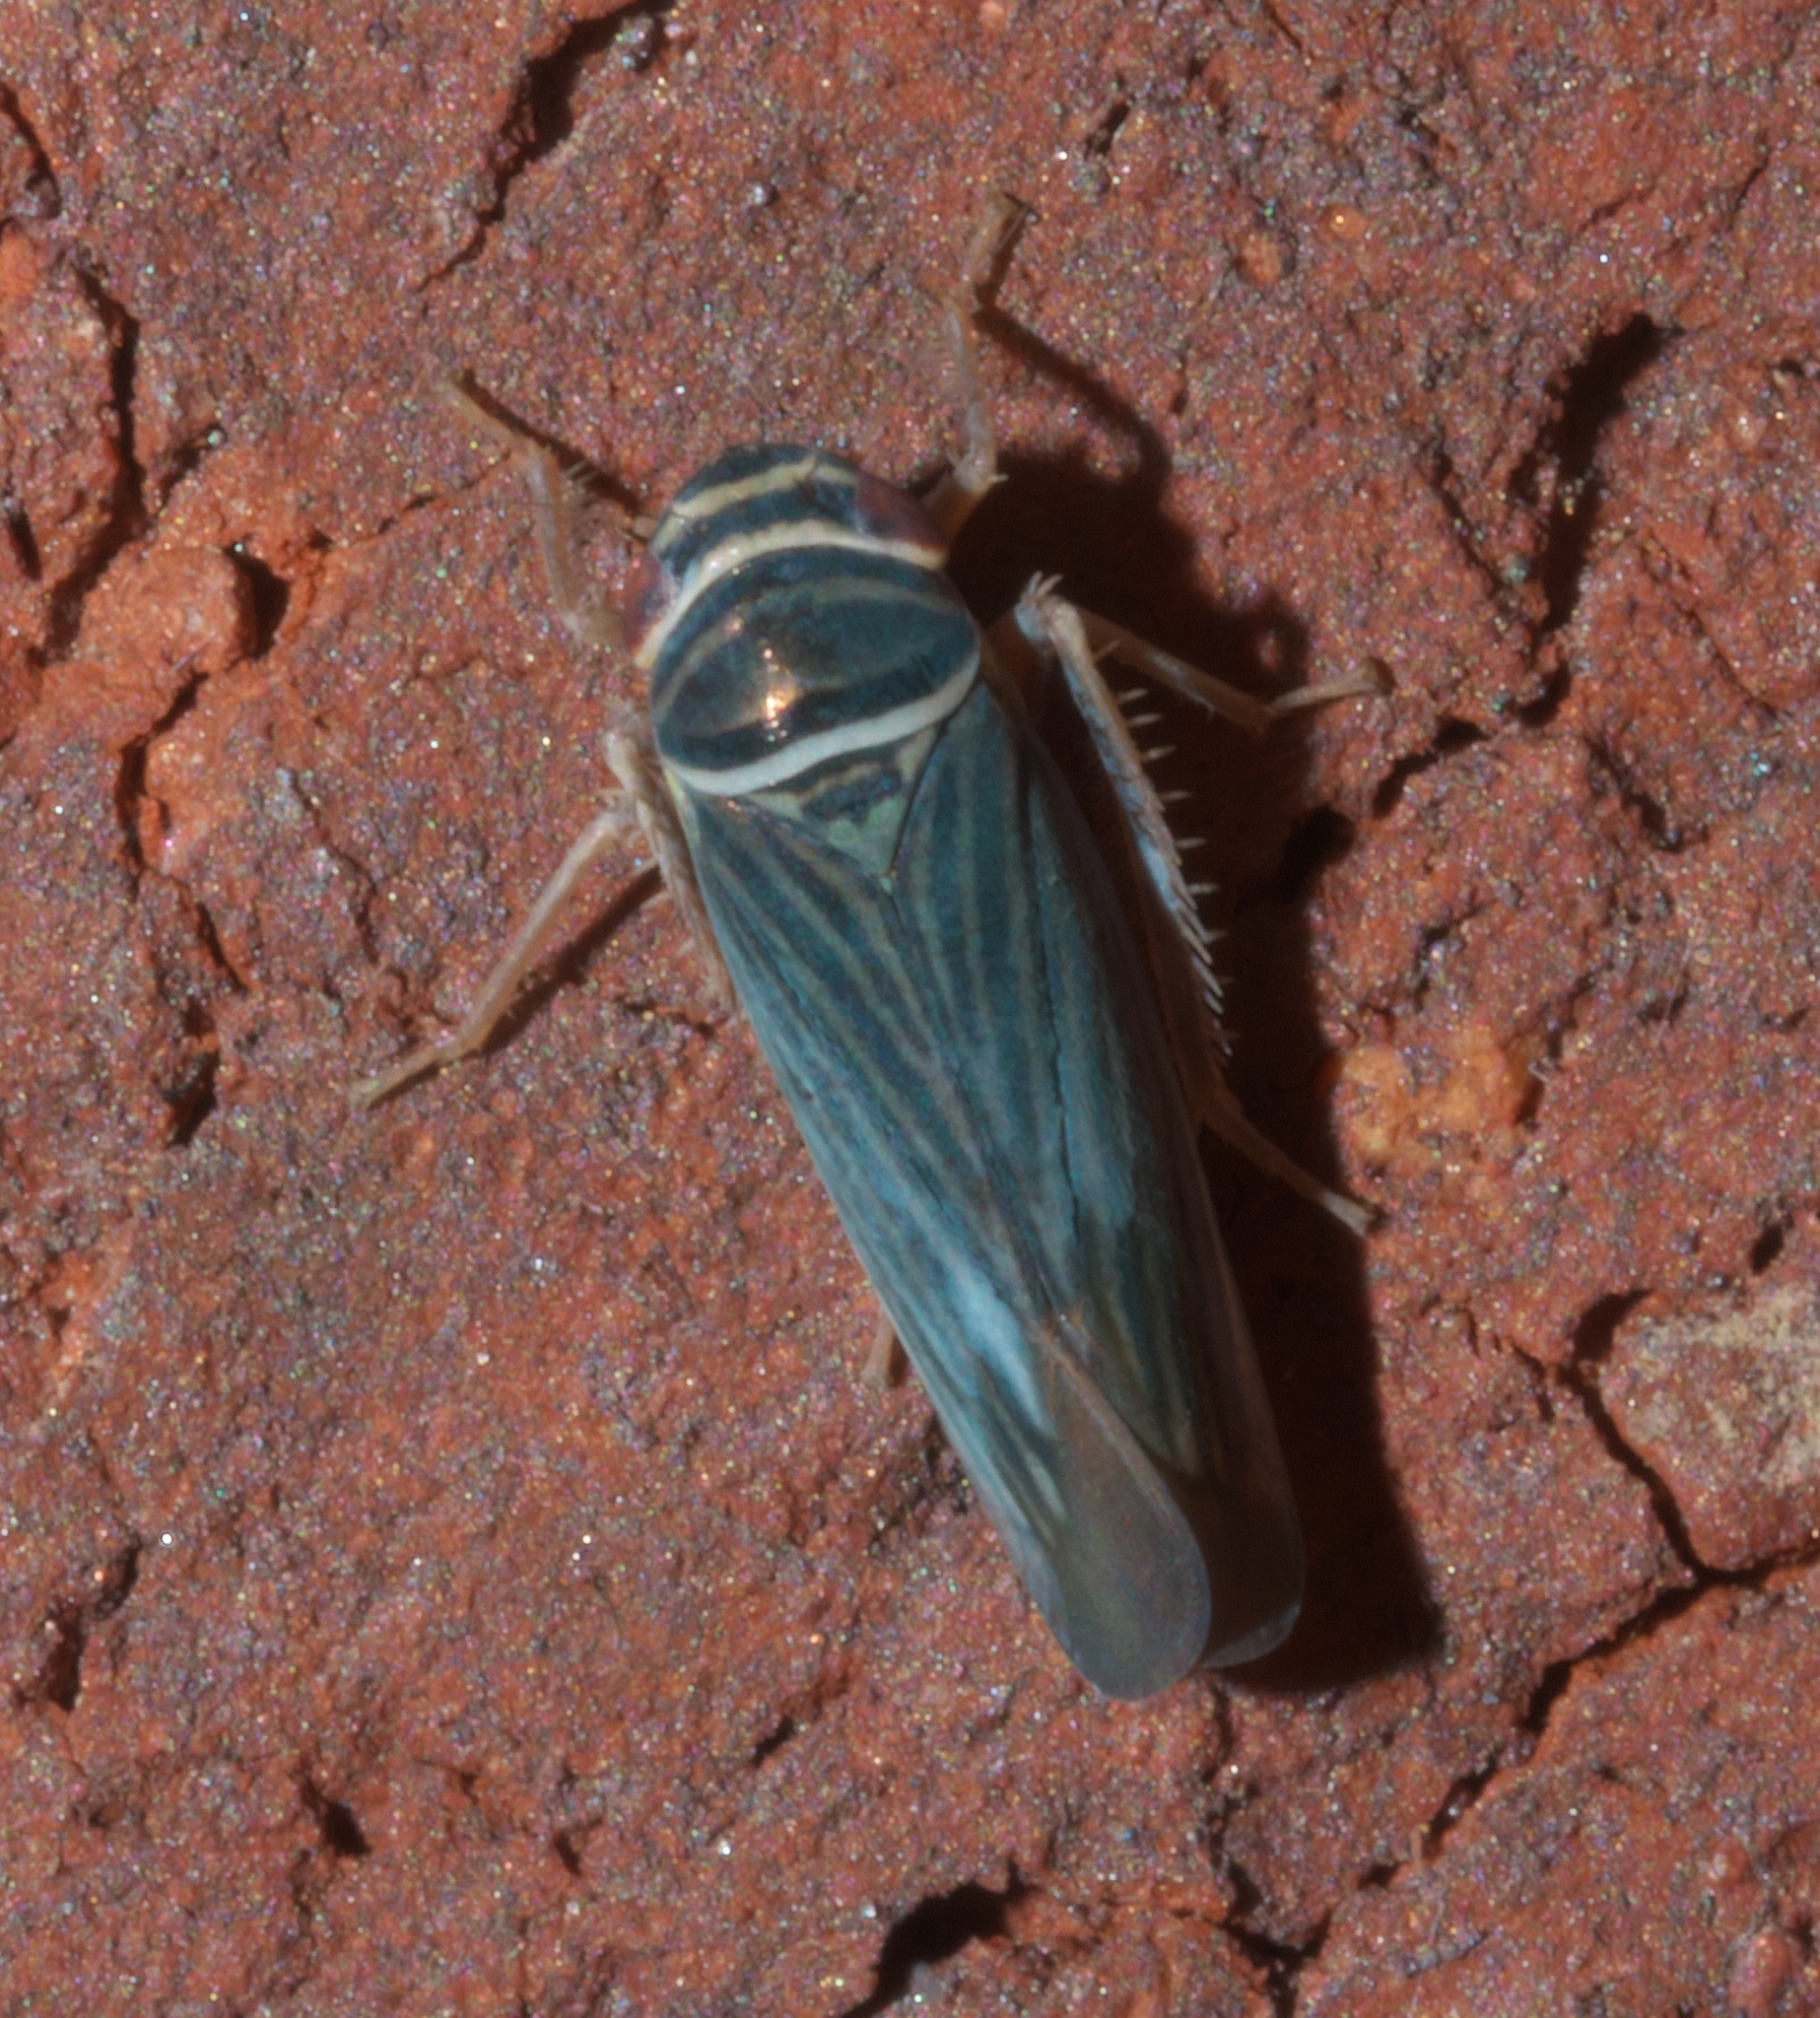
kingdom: Animalia
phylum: Arthropoda
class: Insecta
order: Hemiptera
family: Cicadellidae
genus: Tylozygus
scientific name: Tylozygus bifidus
